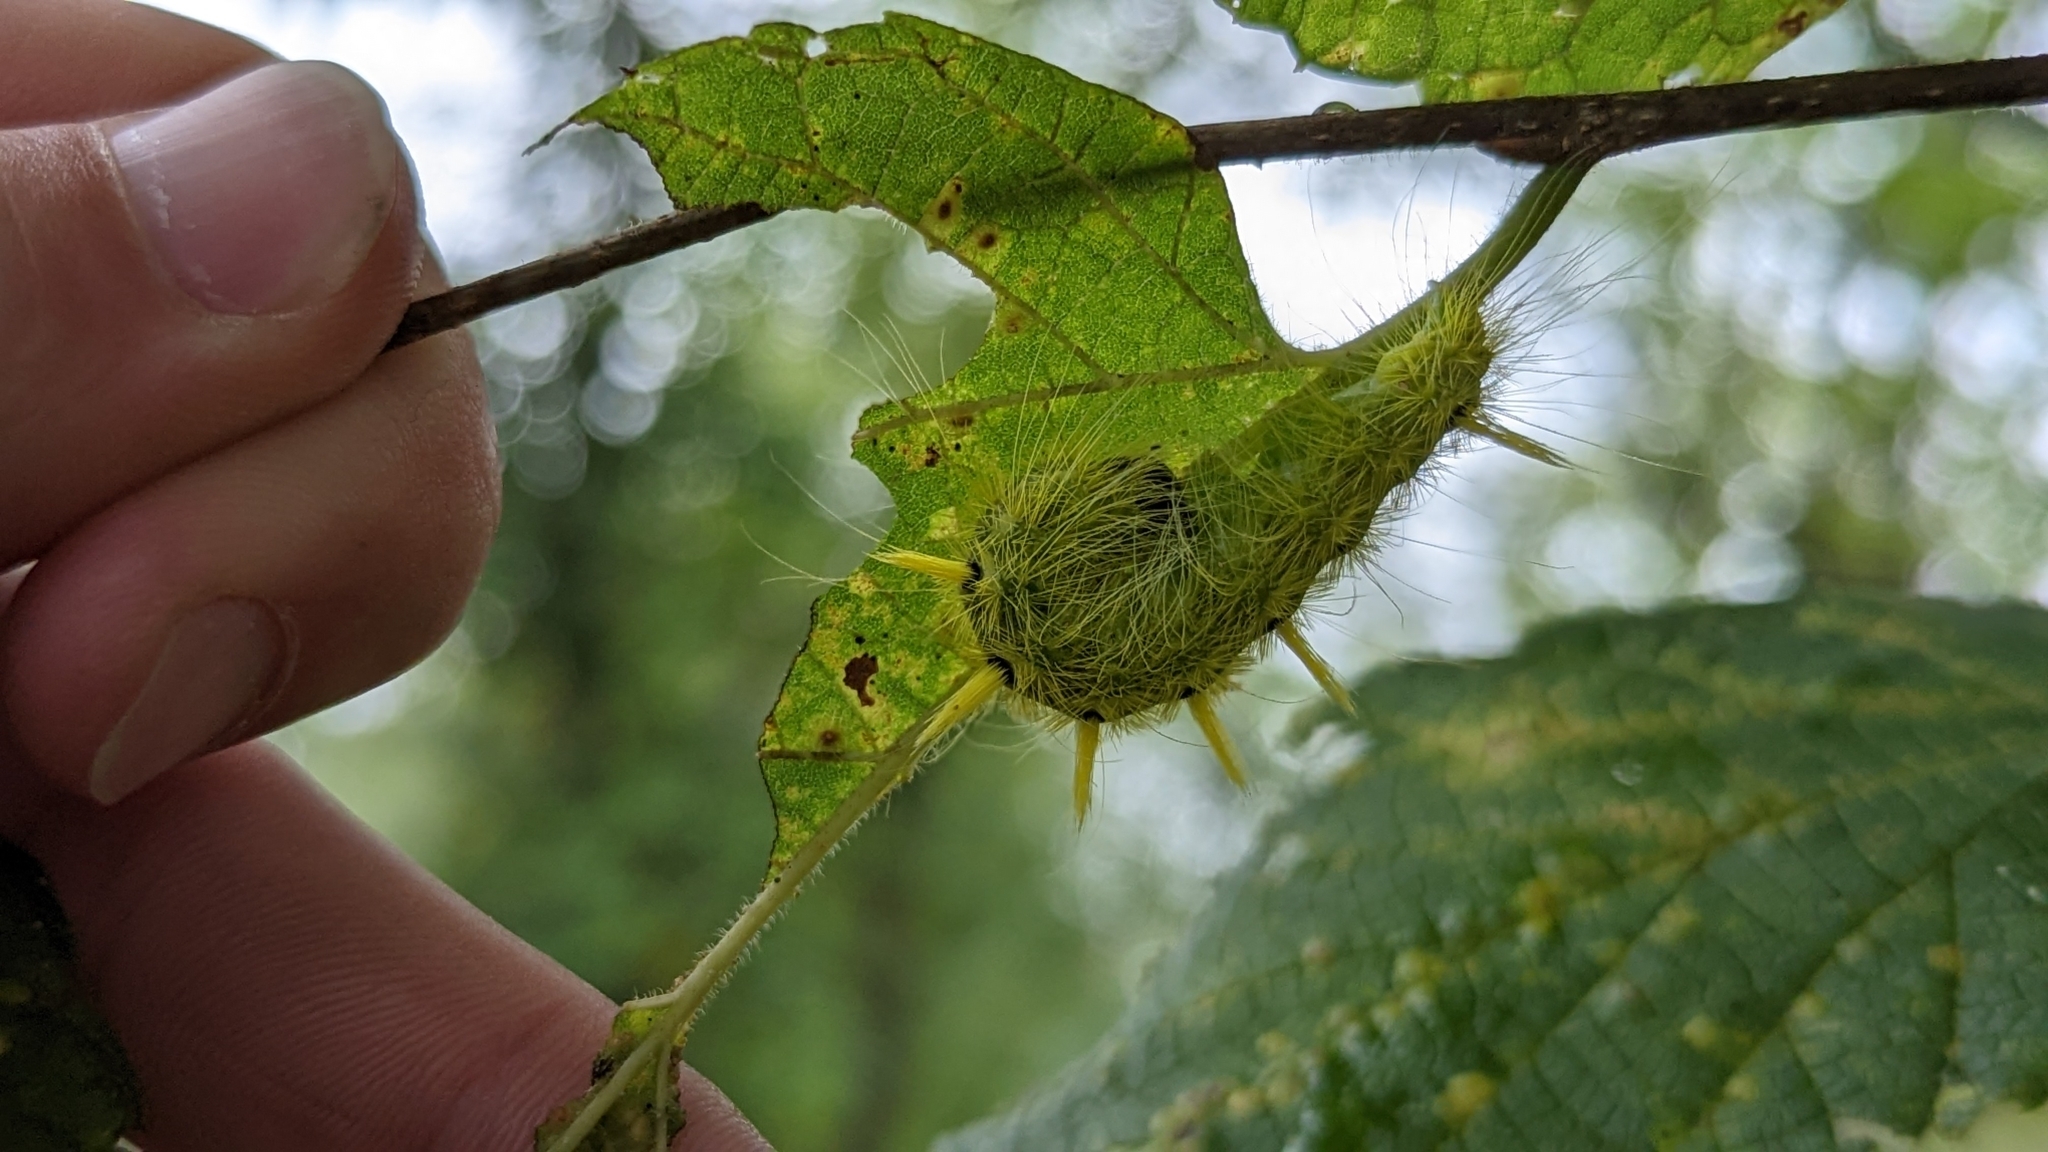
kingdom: Animalia
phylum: Arthropoda
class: Insecta
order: Lepidoptera
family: Noctuidae
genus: Acronicta
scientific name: Acronicta rubricoma
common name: Hackberry dagger
